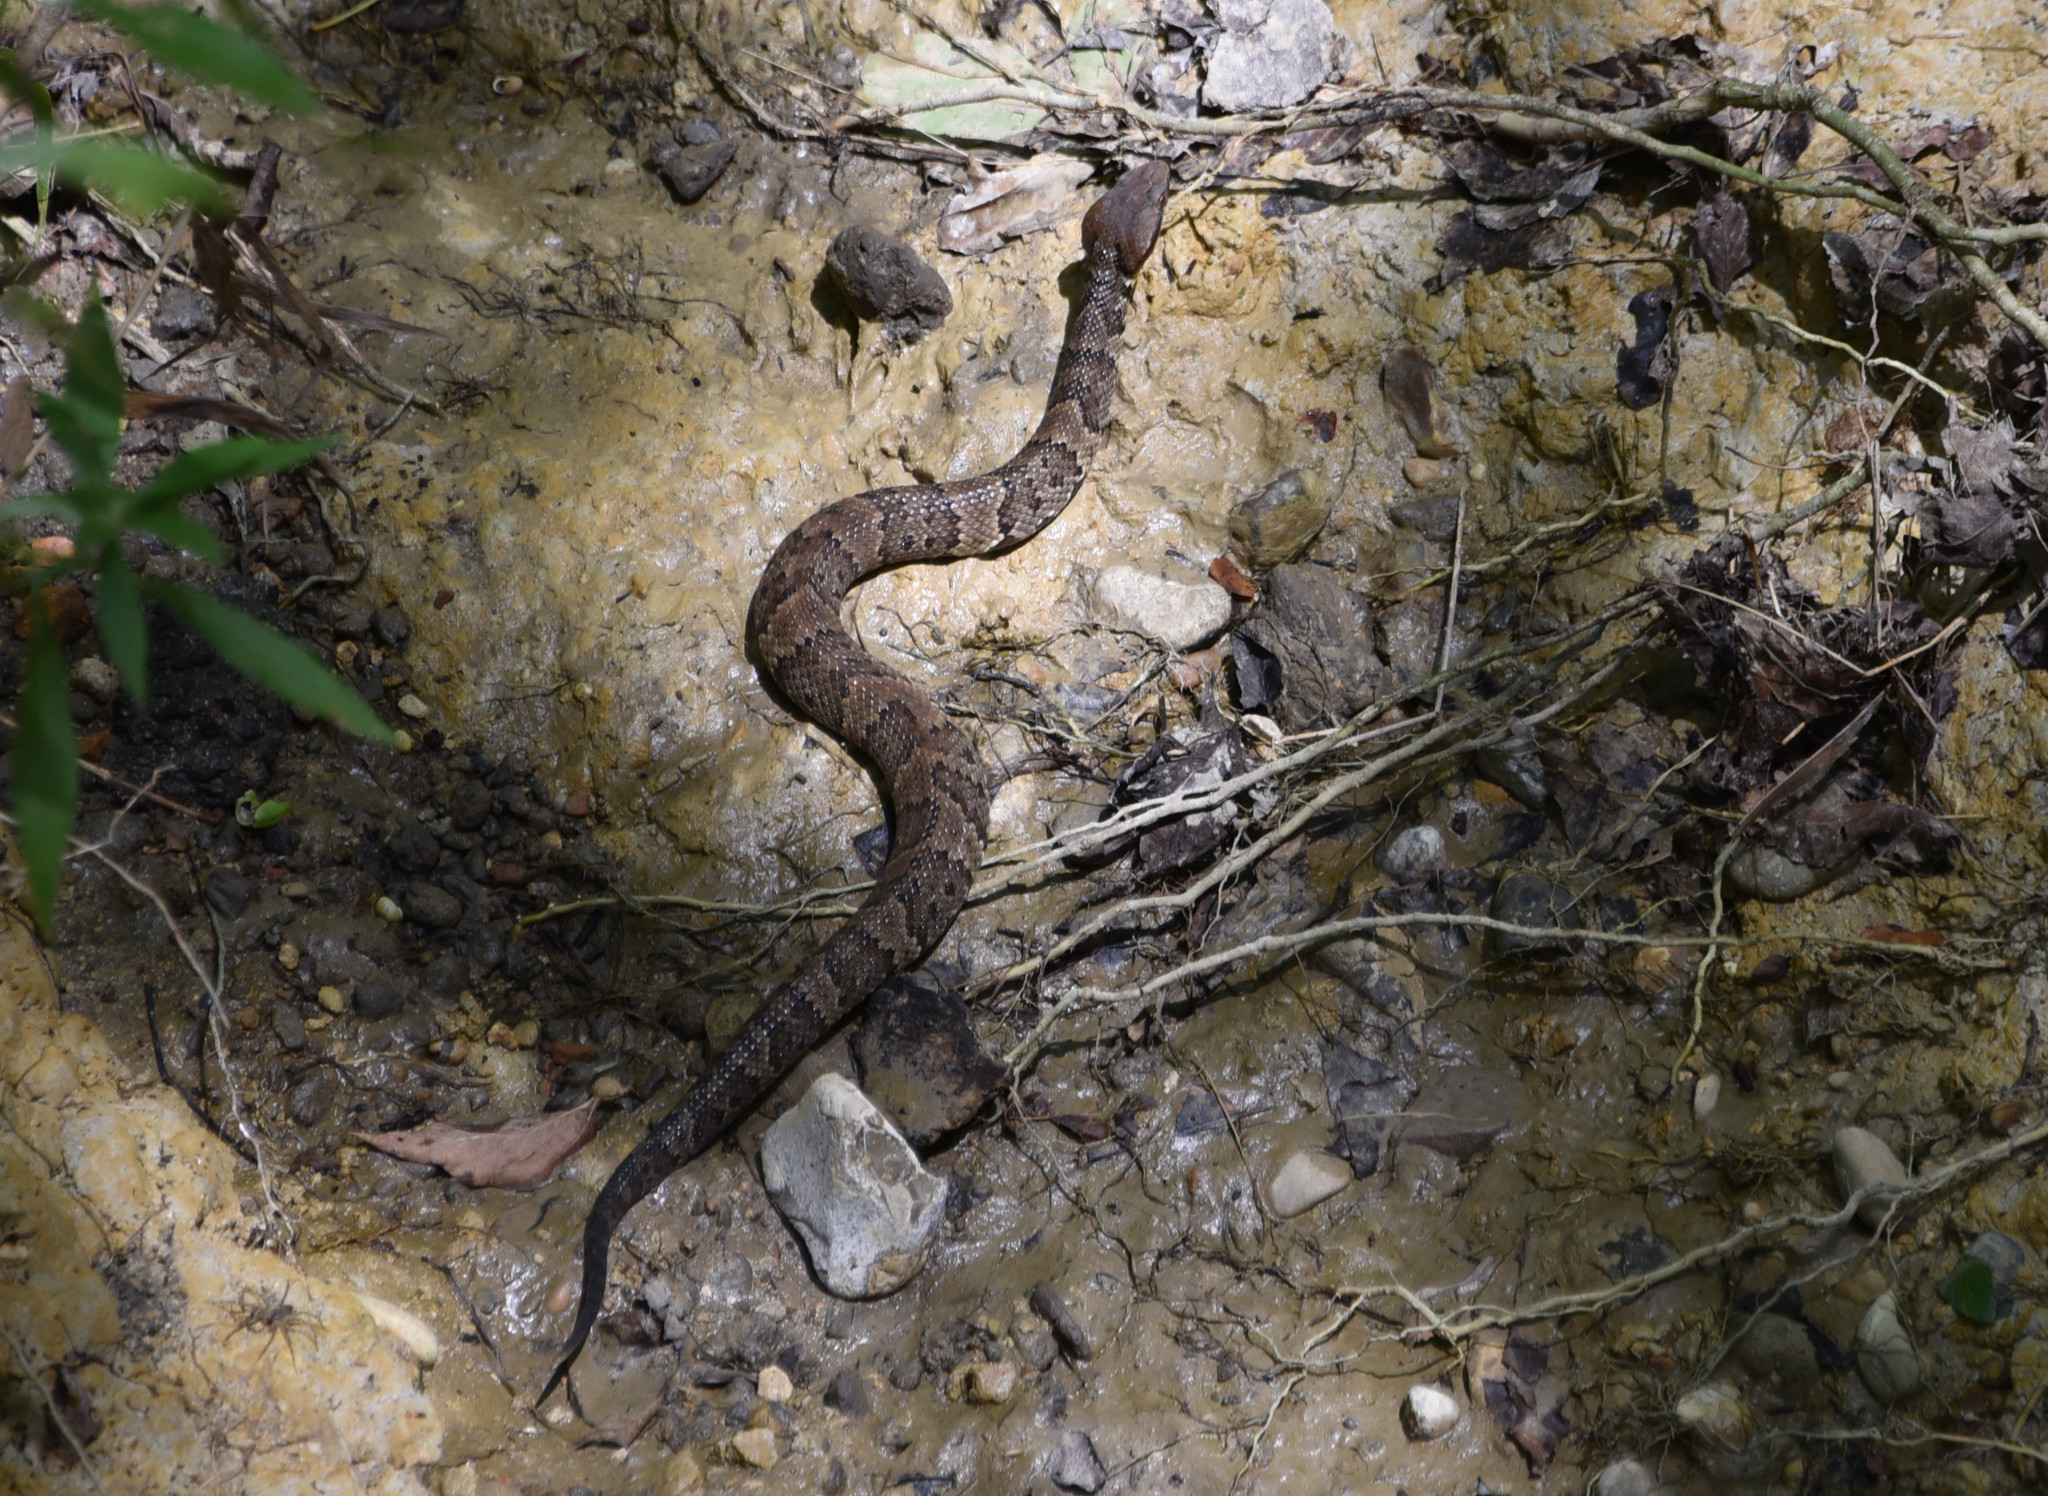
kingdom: Animalia
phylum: Chordata
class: Squamata
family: Viperidae
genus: Agkistrodon
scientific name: Agkistrodon piscivorus
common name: Cottonmouth
